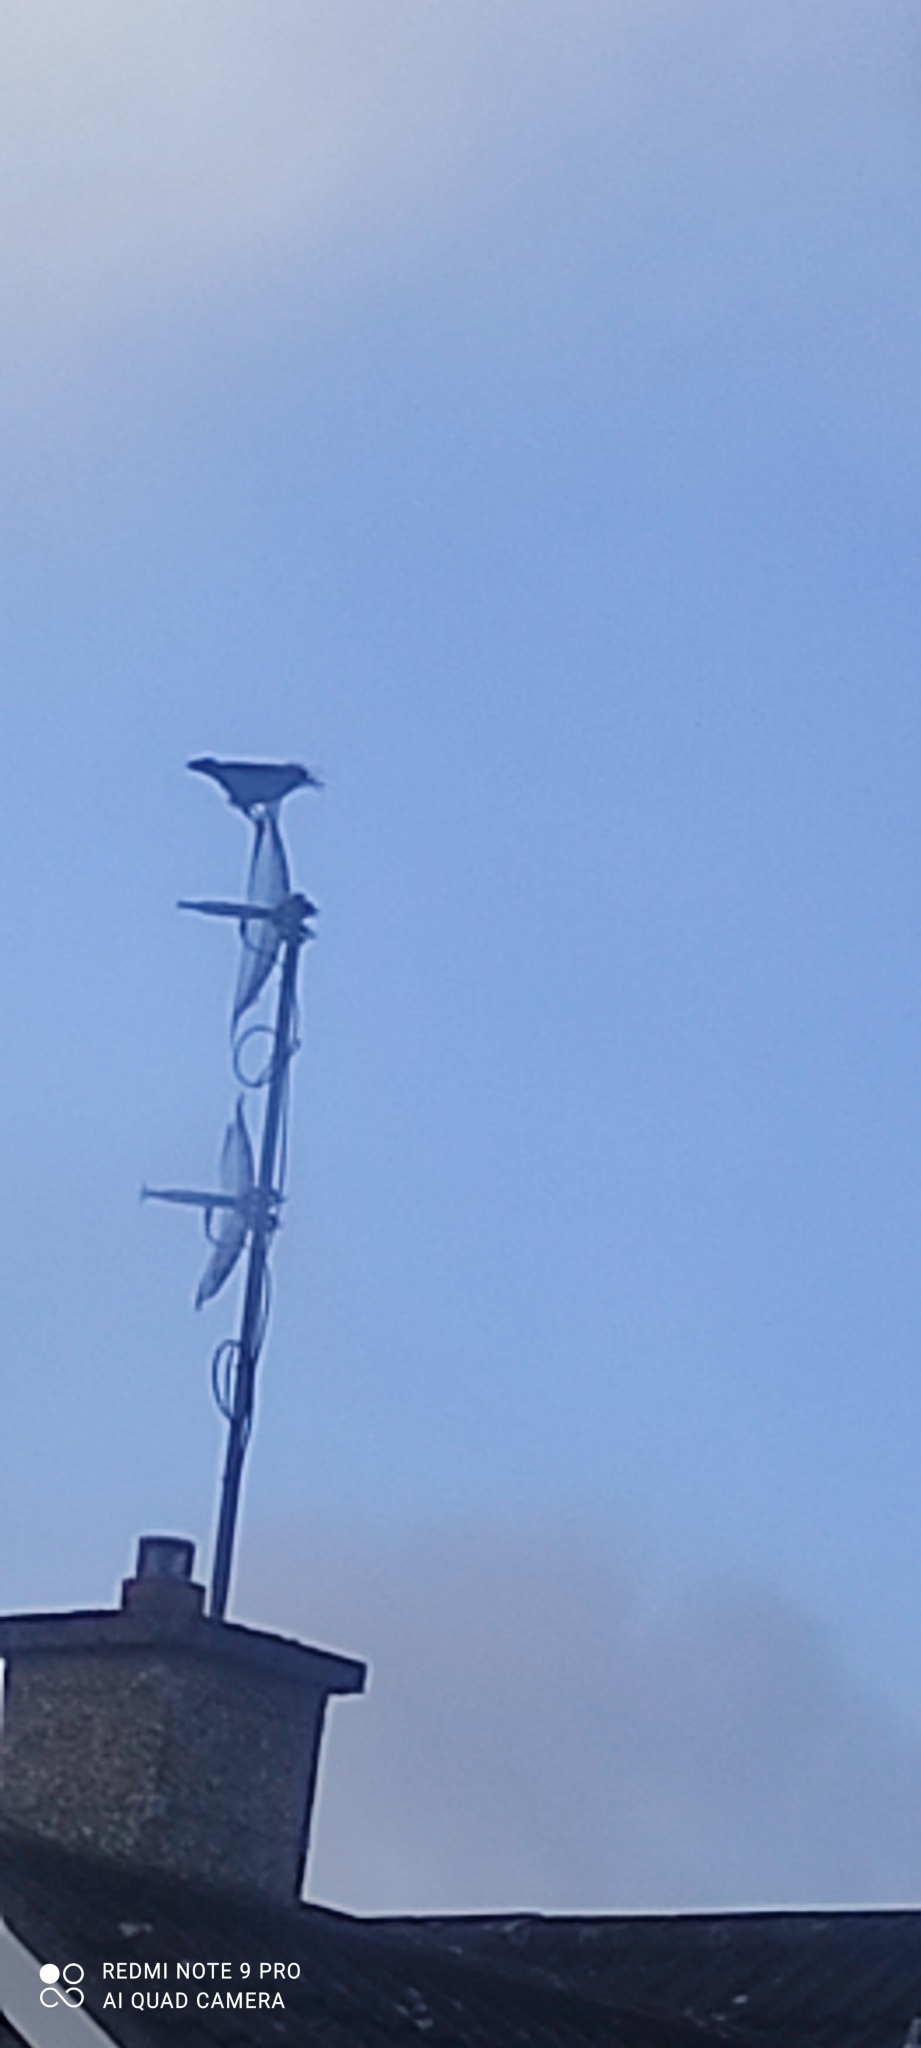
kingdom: Animalia
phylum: Chordata
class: Aves
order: Passeriformes
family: Corvidae
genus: Corvus
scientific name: Corvus cornix
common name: Hooded crow
